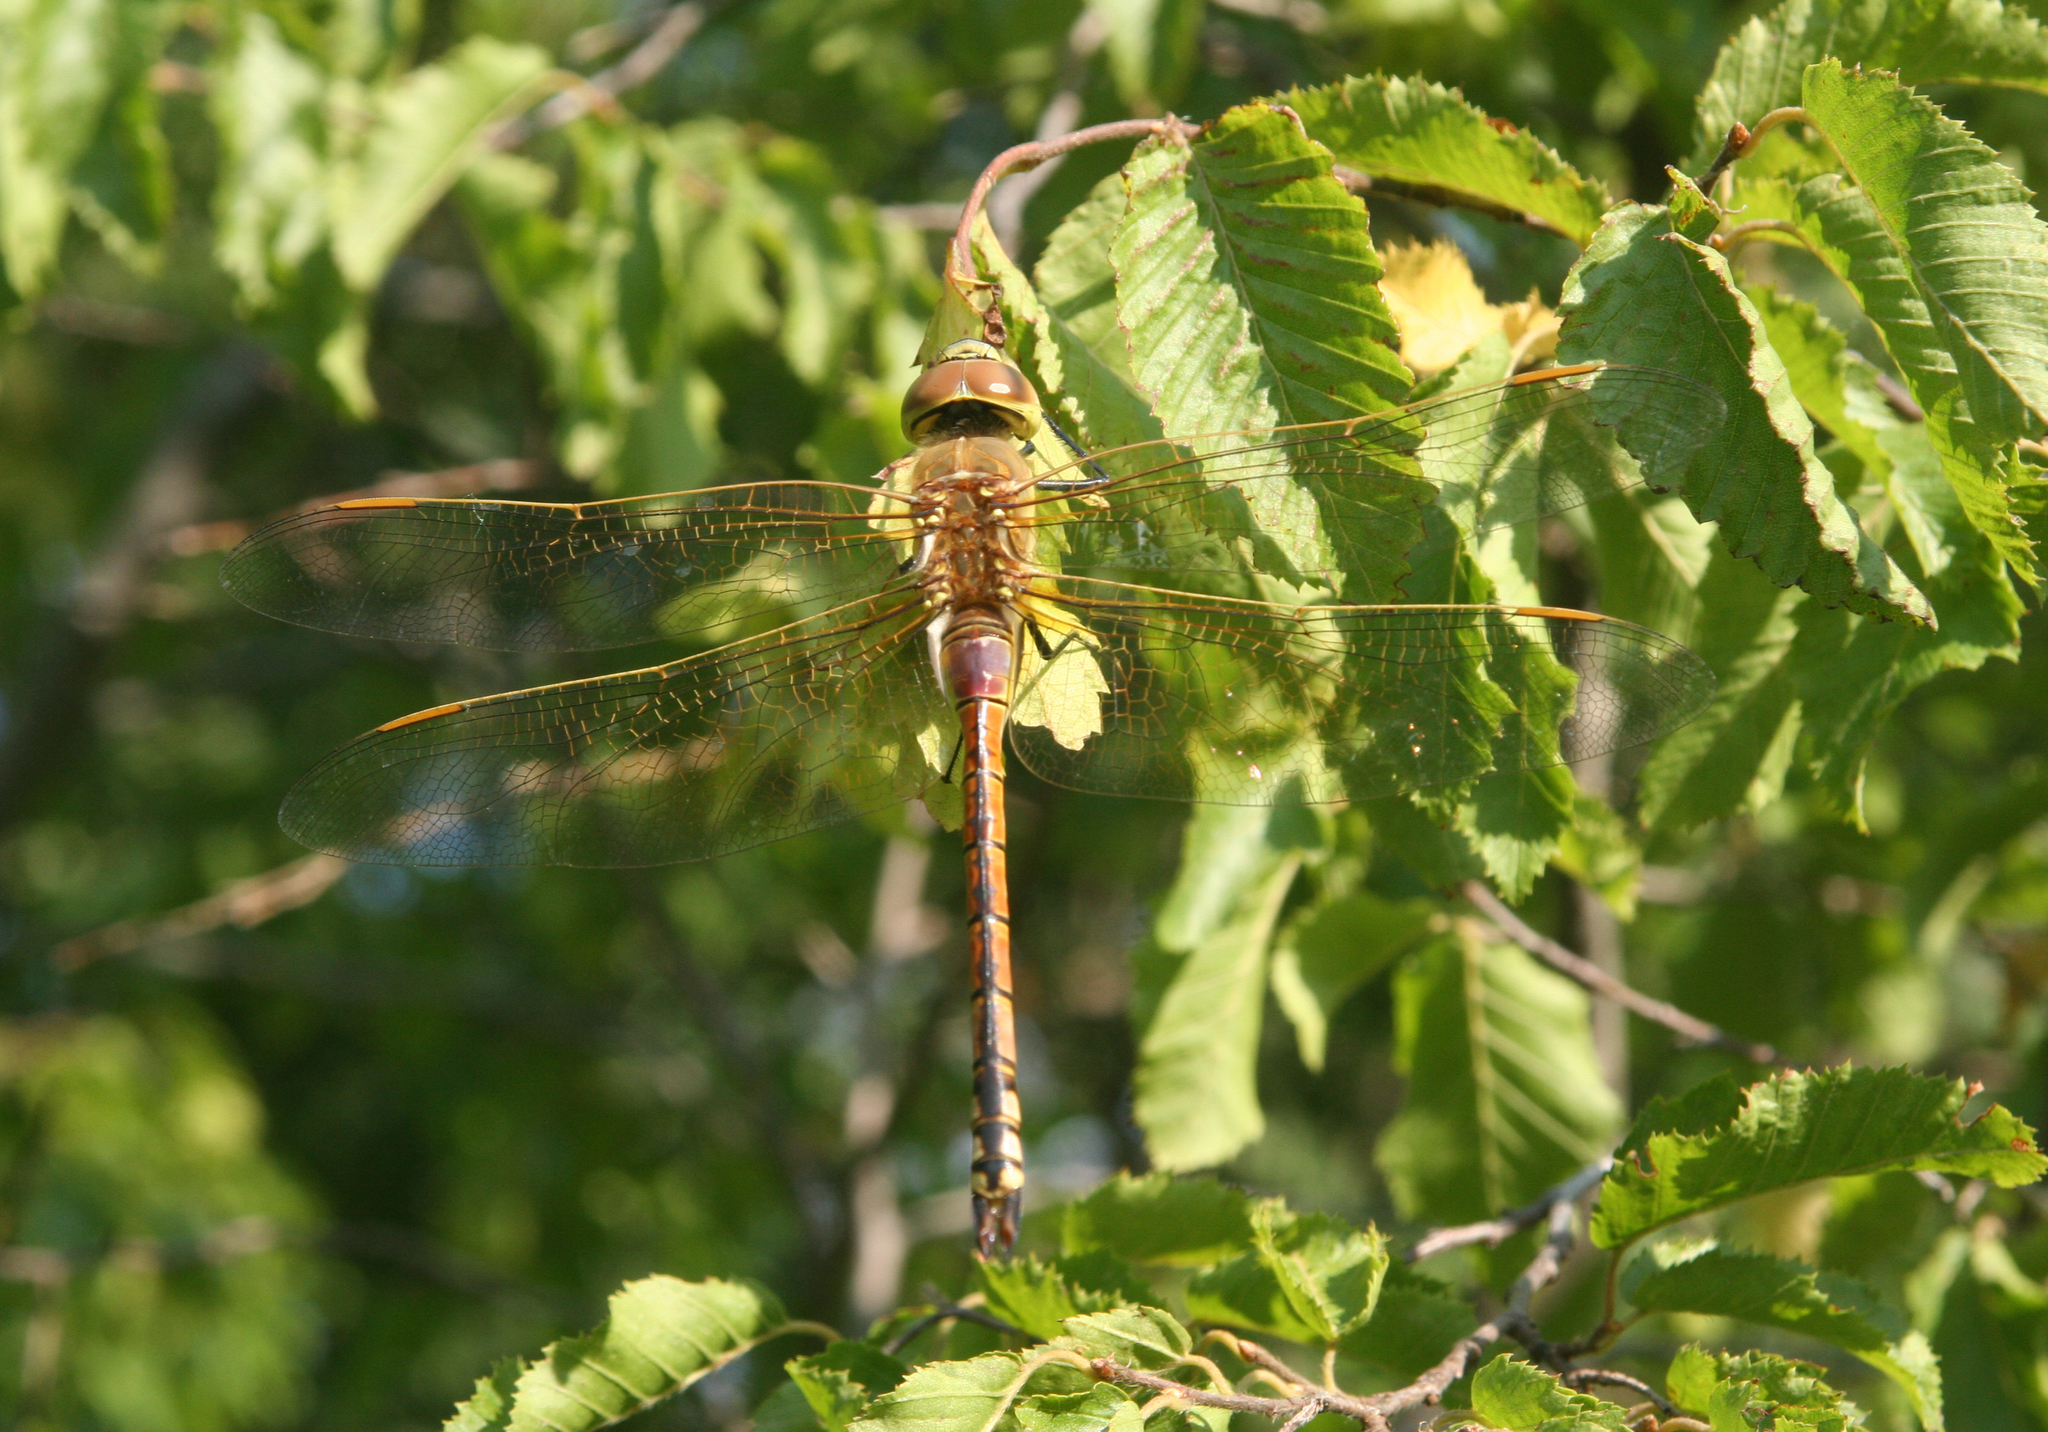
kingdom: Animalia
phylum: Arthropoda
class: Insecta
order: Odonata
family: Aeshnidae
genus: Anax
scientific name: Anax ephippiger
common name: Vagrant emperor
